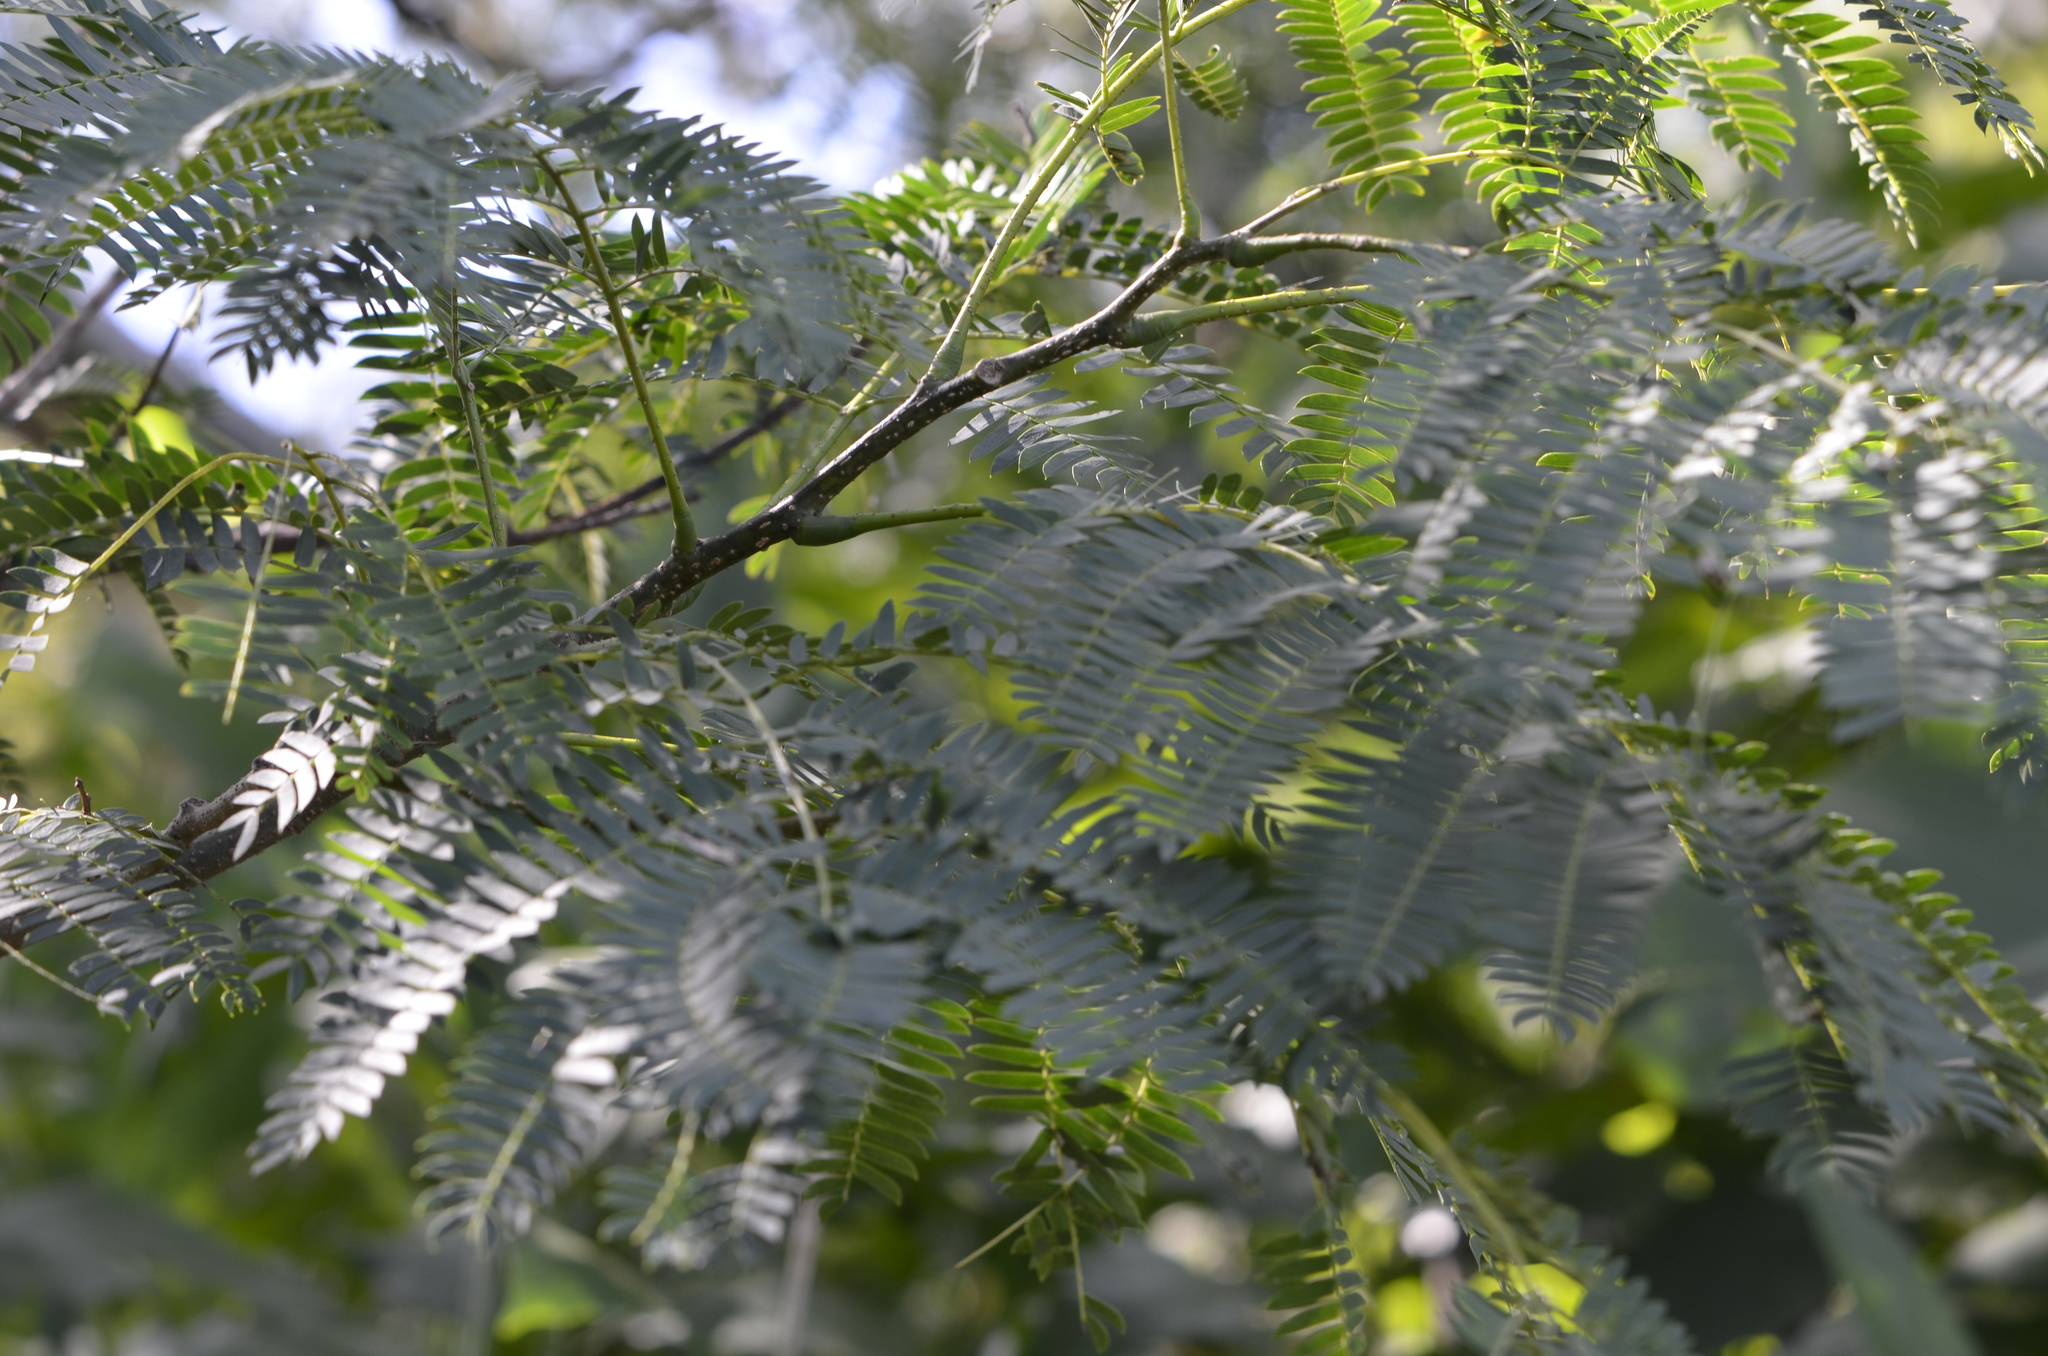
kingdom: Plantae
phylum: Tracheophyta
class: Magnoliopsida
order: Fabales
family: Fabaceae
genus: Enterolobium
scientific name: Enterolobium contortisiliquum
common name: Pacara earpod tree
